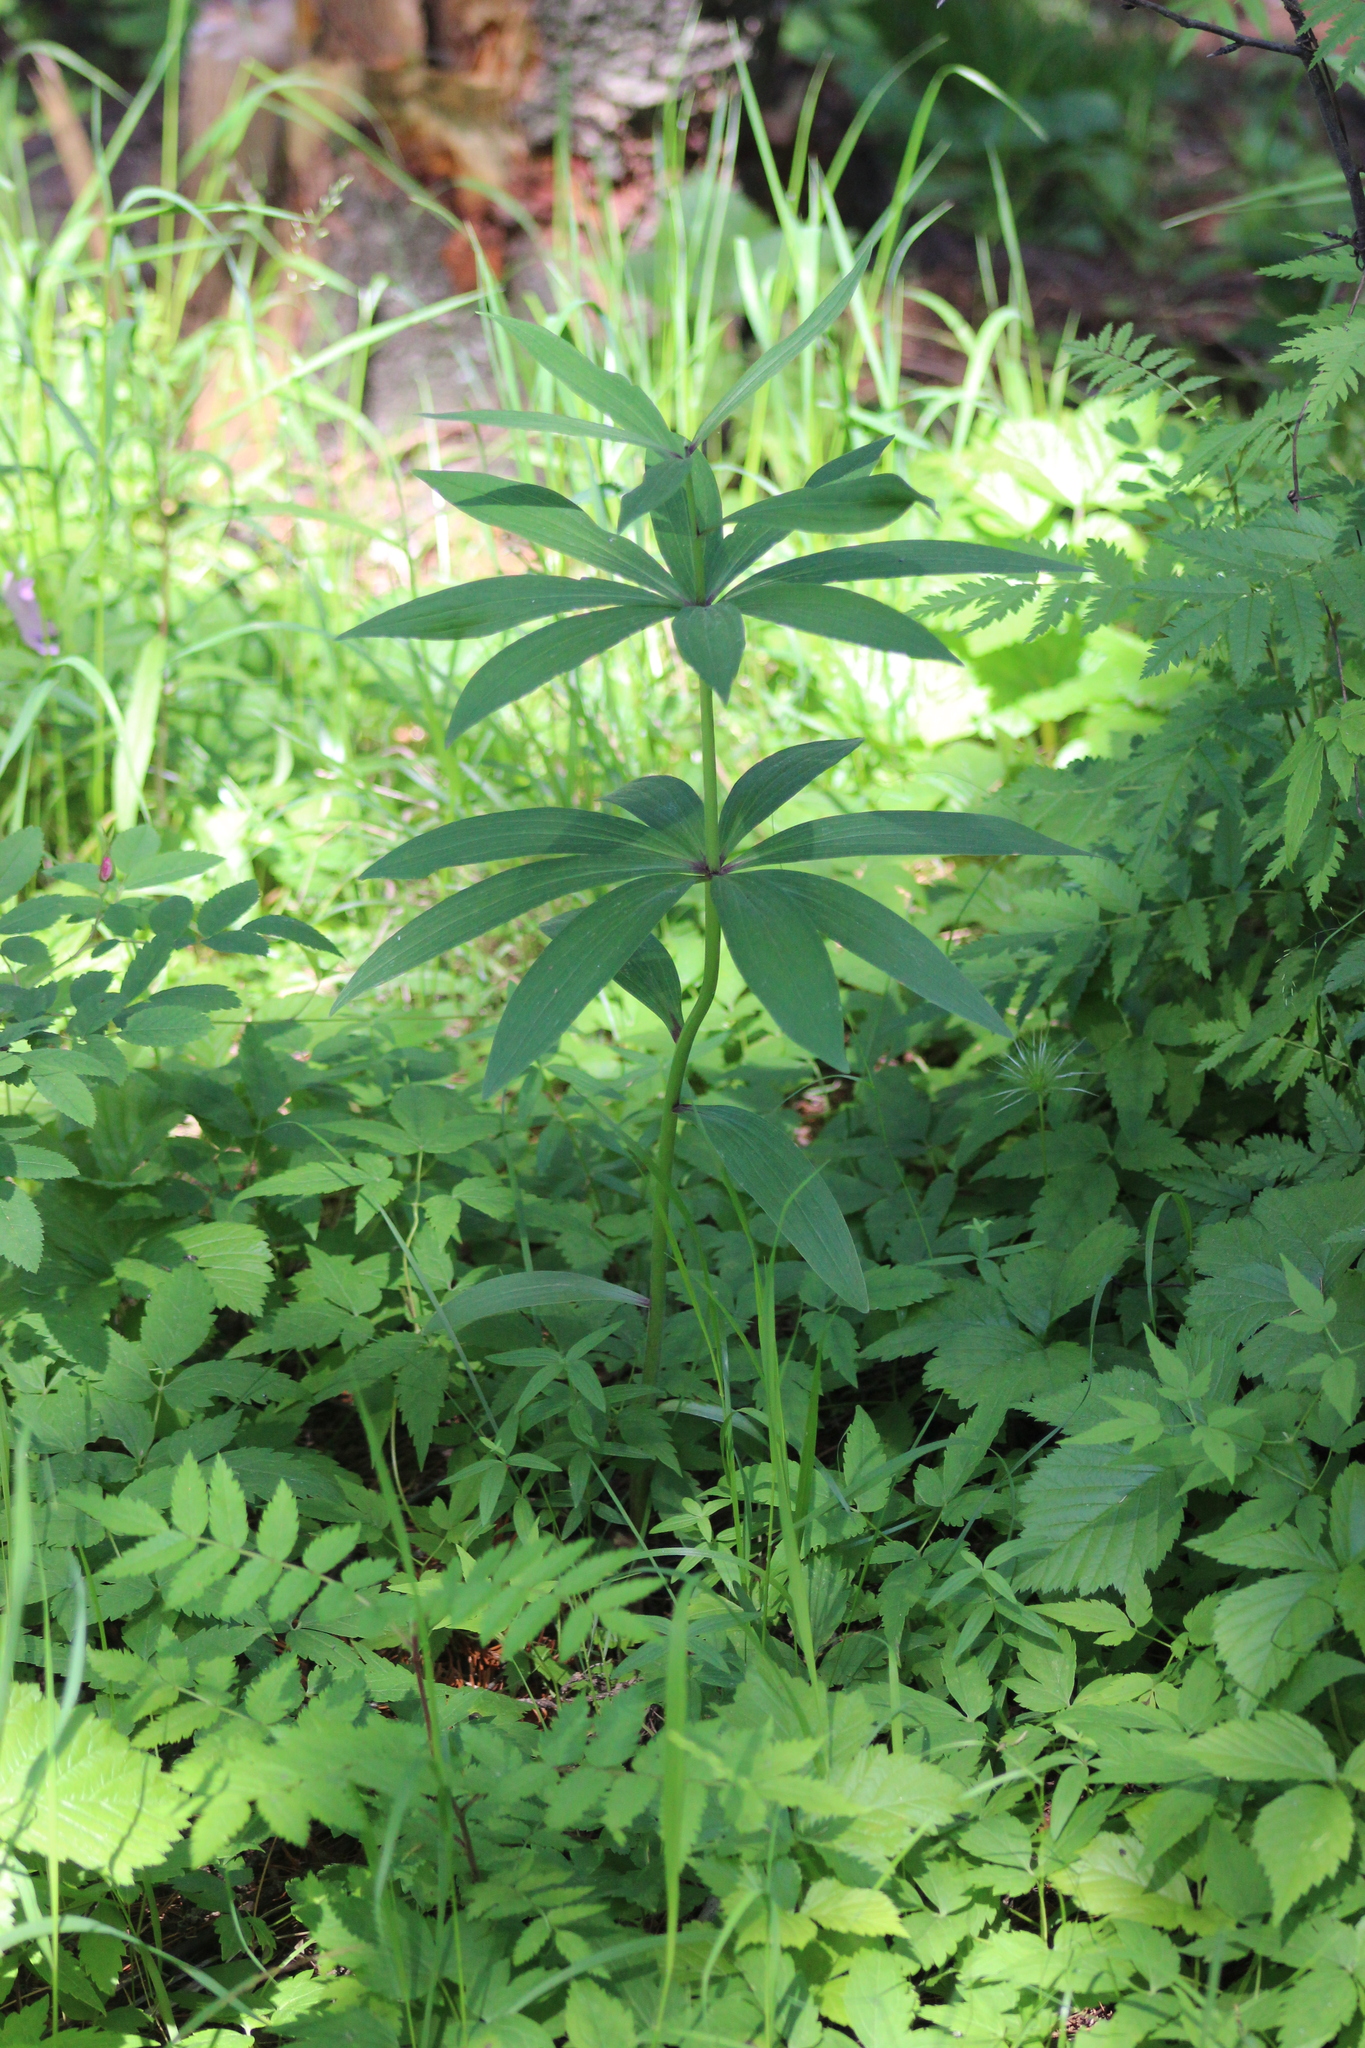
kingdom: Plantae
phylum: Tracheophyta
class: Liliopsida
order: Liliales
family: Liliaceae
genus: Lilium
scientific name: Lilium martagon
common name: Martagon lily
